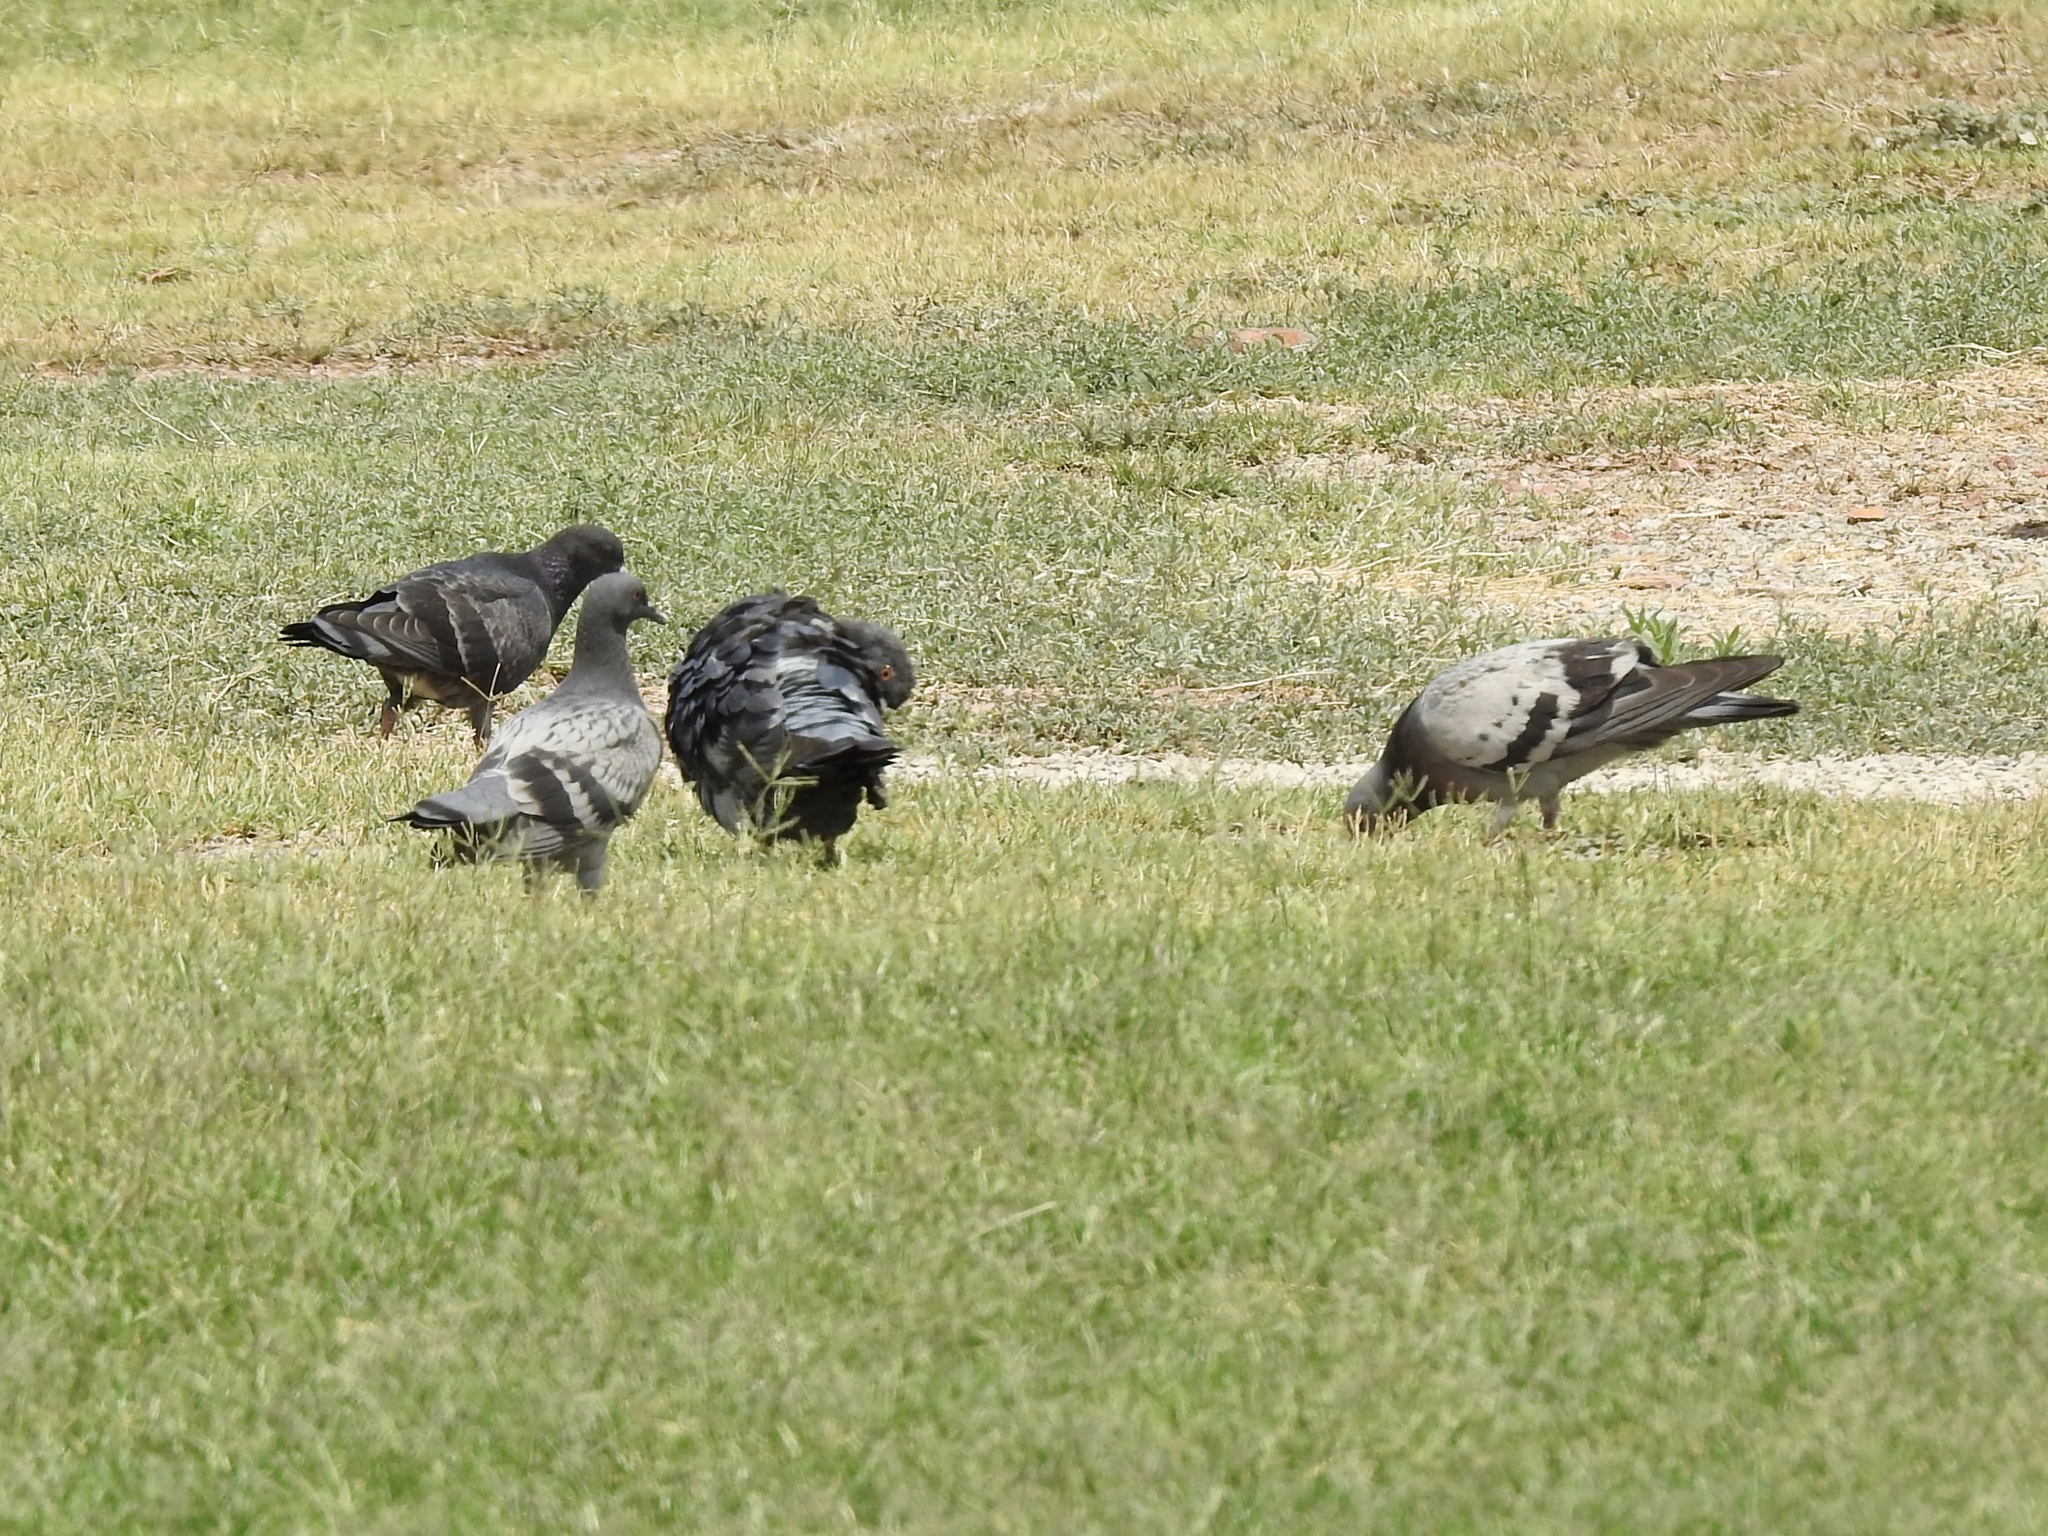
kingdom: Animalia
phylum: Chordata
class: Aves
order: Columbiformes
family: Columbidae
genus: Columba
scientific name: Columba livia
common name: Rock pigeon
